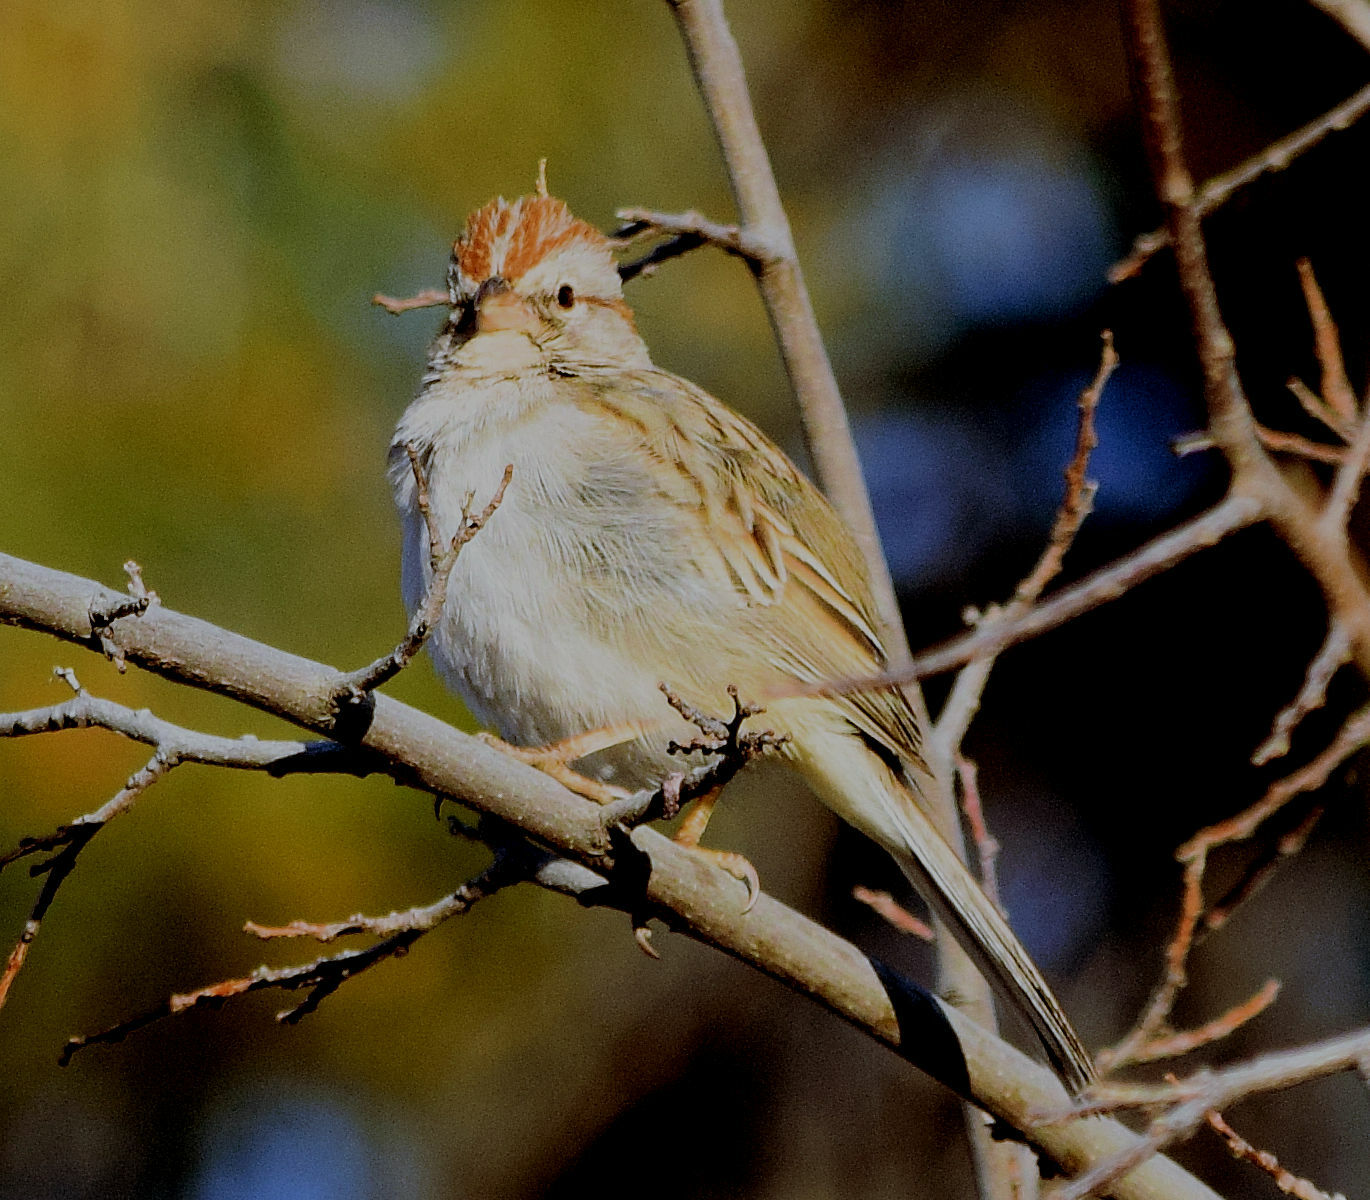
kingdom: Animalia
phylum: Chordata
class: Aves
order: Passeriformes
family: Passerellidae
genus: Peucaea
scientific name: Peucaea carpalis
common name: Rufous-winged sparrow
